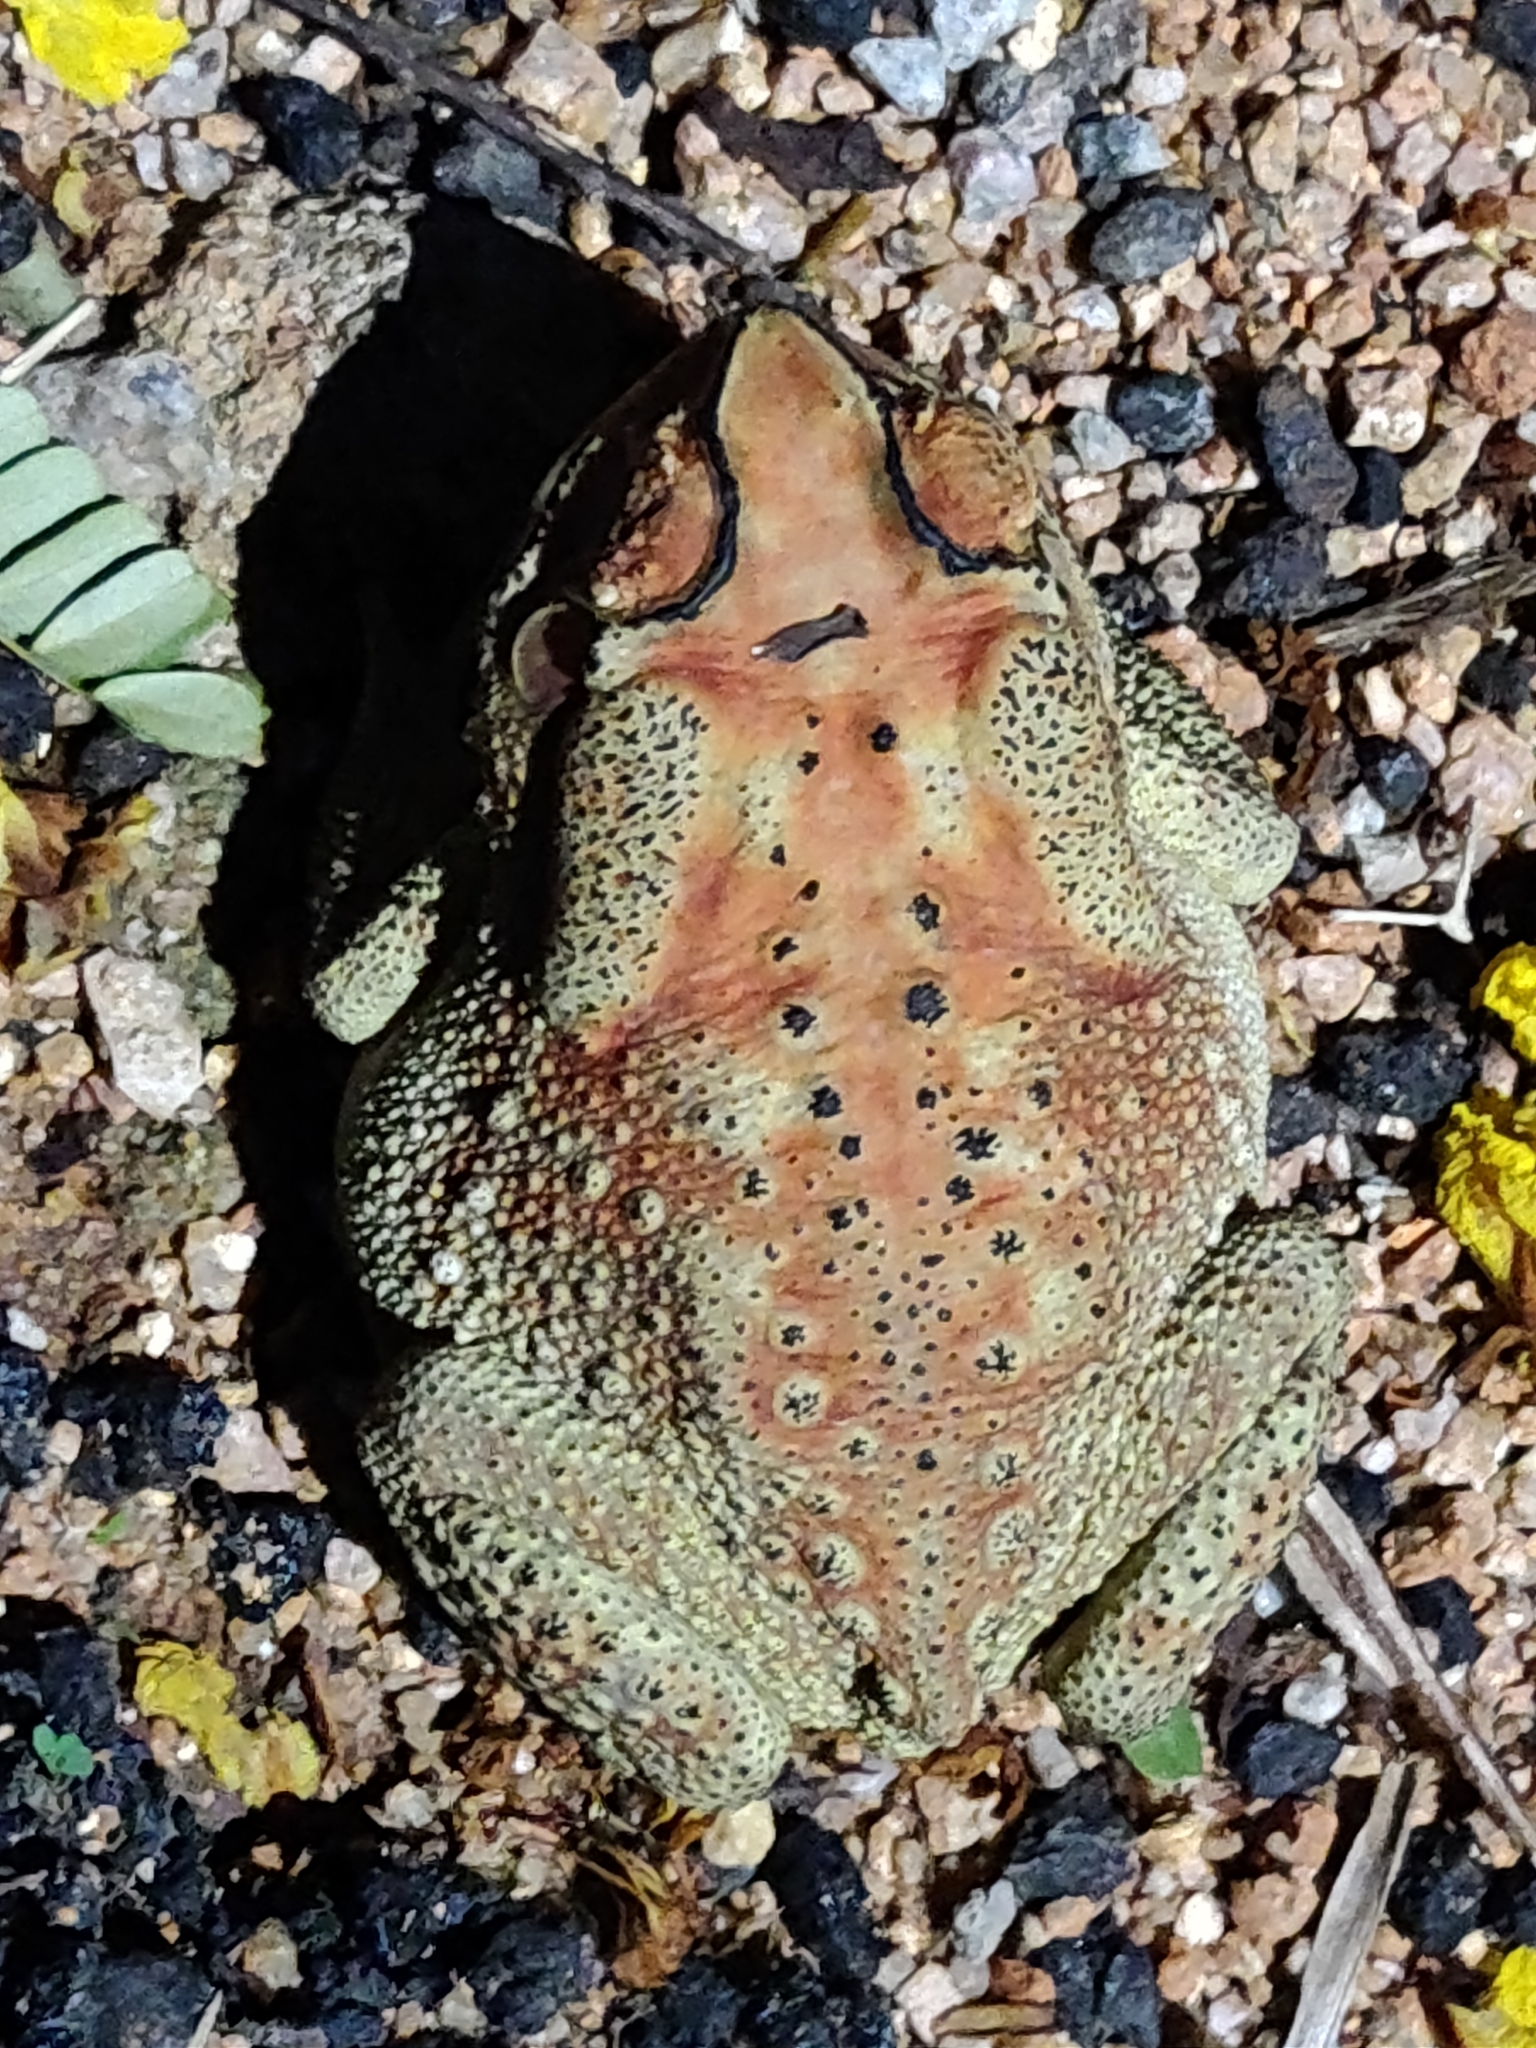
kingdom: Animalia
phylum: Chordata
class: Amphibia
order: Anura
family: Bufonidae
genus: Duttaphrynus
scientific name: Duttaphrynus melanostictus
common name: Common sunda toad
